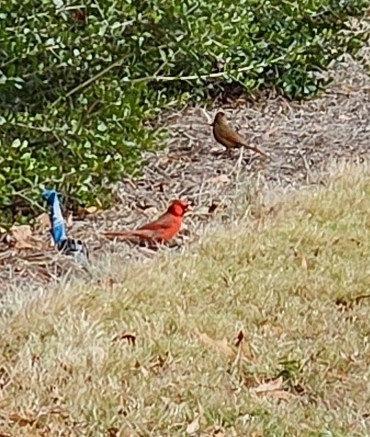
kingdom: Animalia
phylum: Chordata
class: Aves
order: Passeriformes
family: Cardinalidae
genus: Cardinalis
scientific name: Cardinalis cardinalis
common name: Northern cardinal
